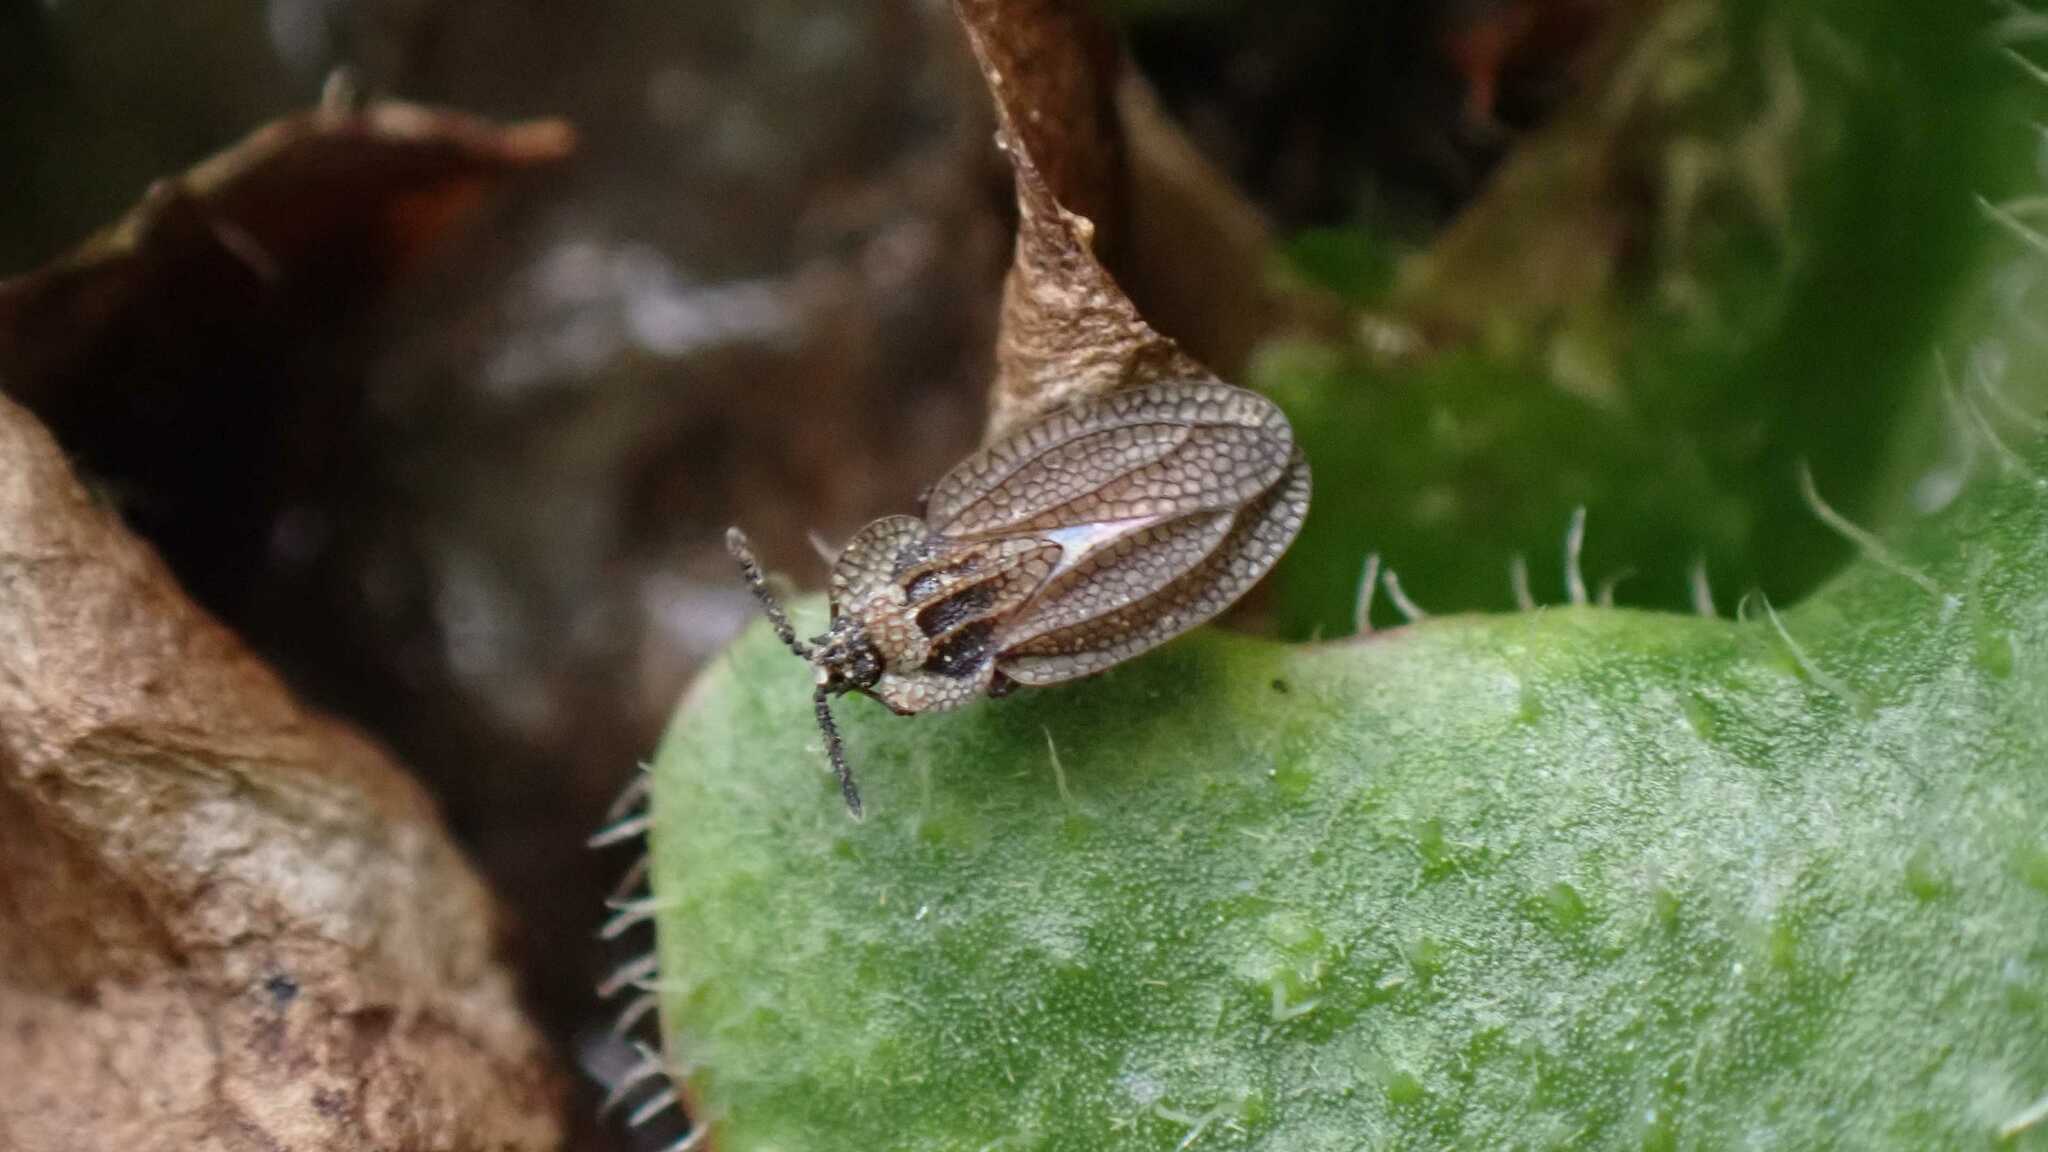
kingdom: Animalia
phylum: Arthropoda
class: Insecta
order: Hemiptera
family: Tingidae
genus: Dictyonota
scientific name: Dictyonota tricornis
